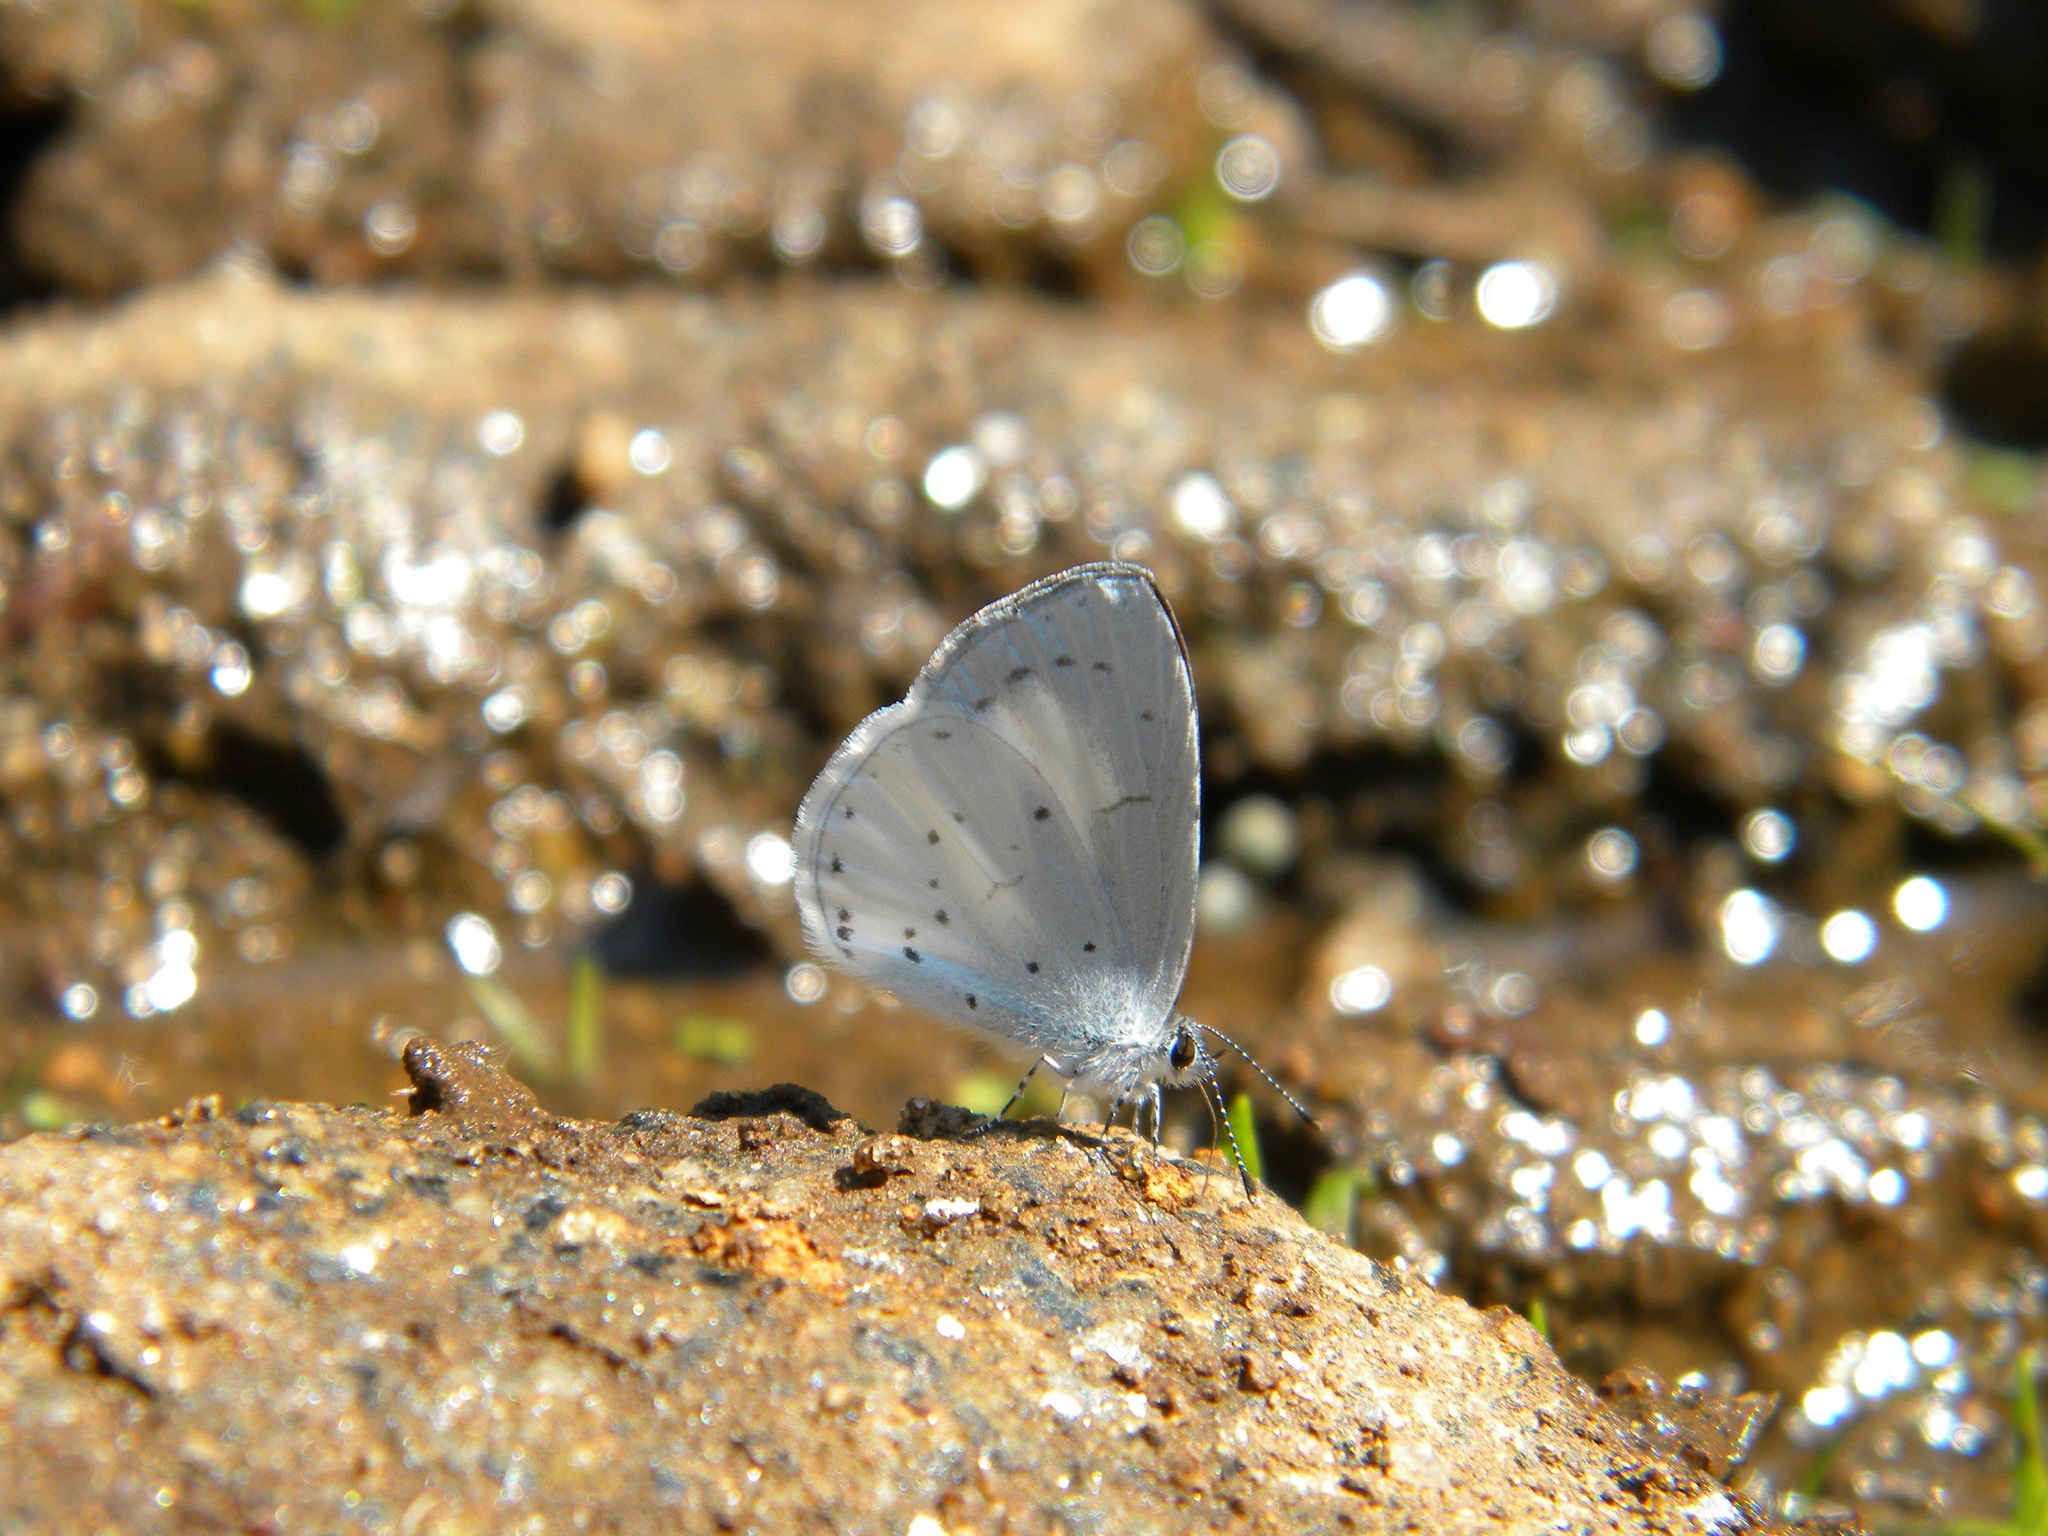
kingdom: Animalia
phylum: Arthropoda
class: Insecta
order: Lepidoptera
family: Lycaenidae
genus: Udara
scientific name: Udara akasa
